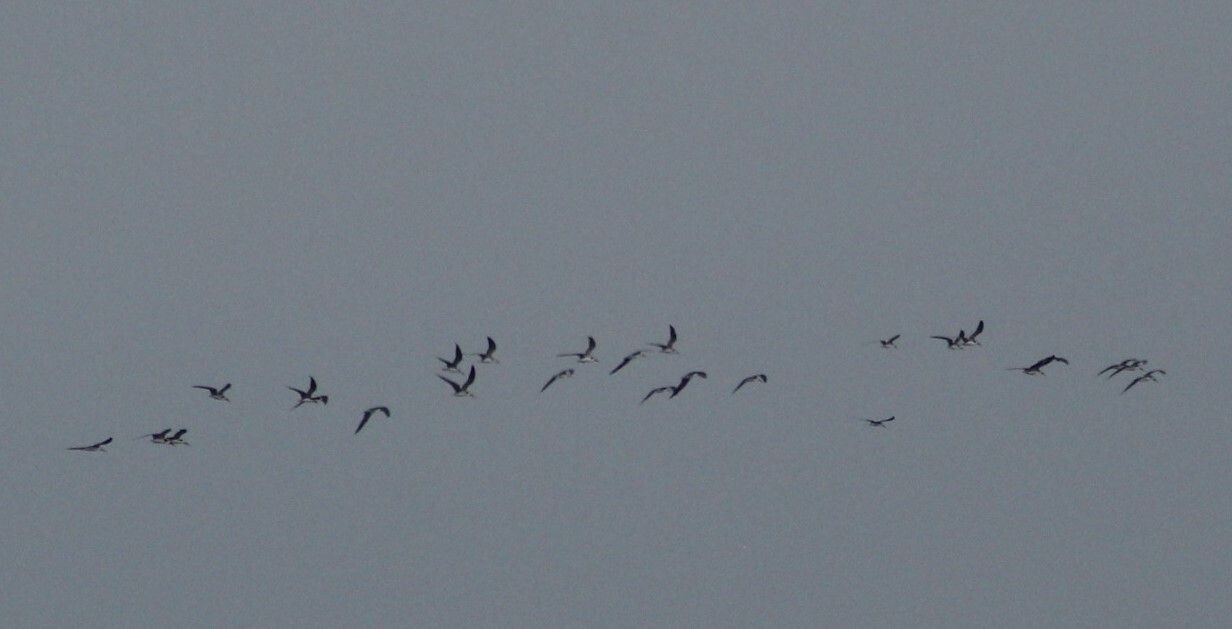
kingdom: Animalia
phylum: Chordata
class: Aves
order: Charadriiformes
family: Laridae
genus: Rynchops
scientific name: Rynchops niger
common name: Black skimmer
